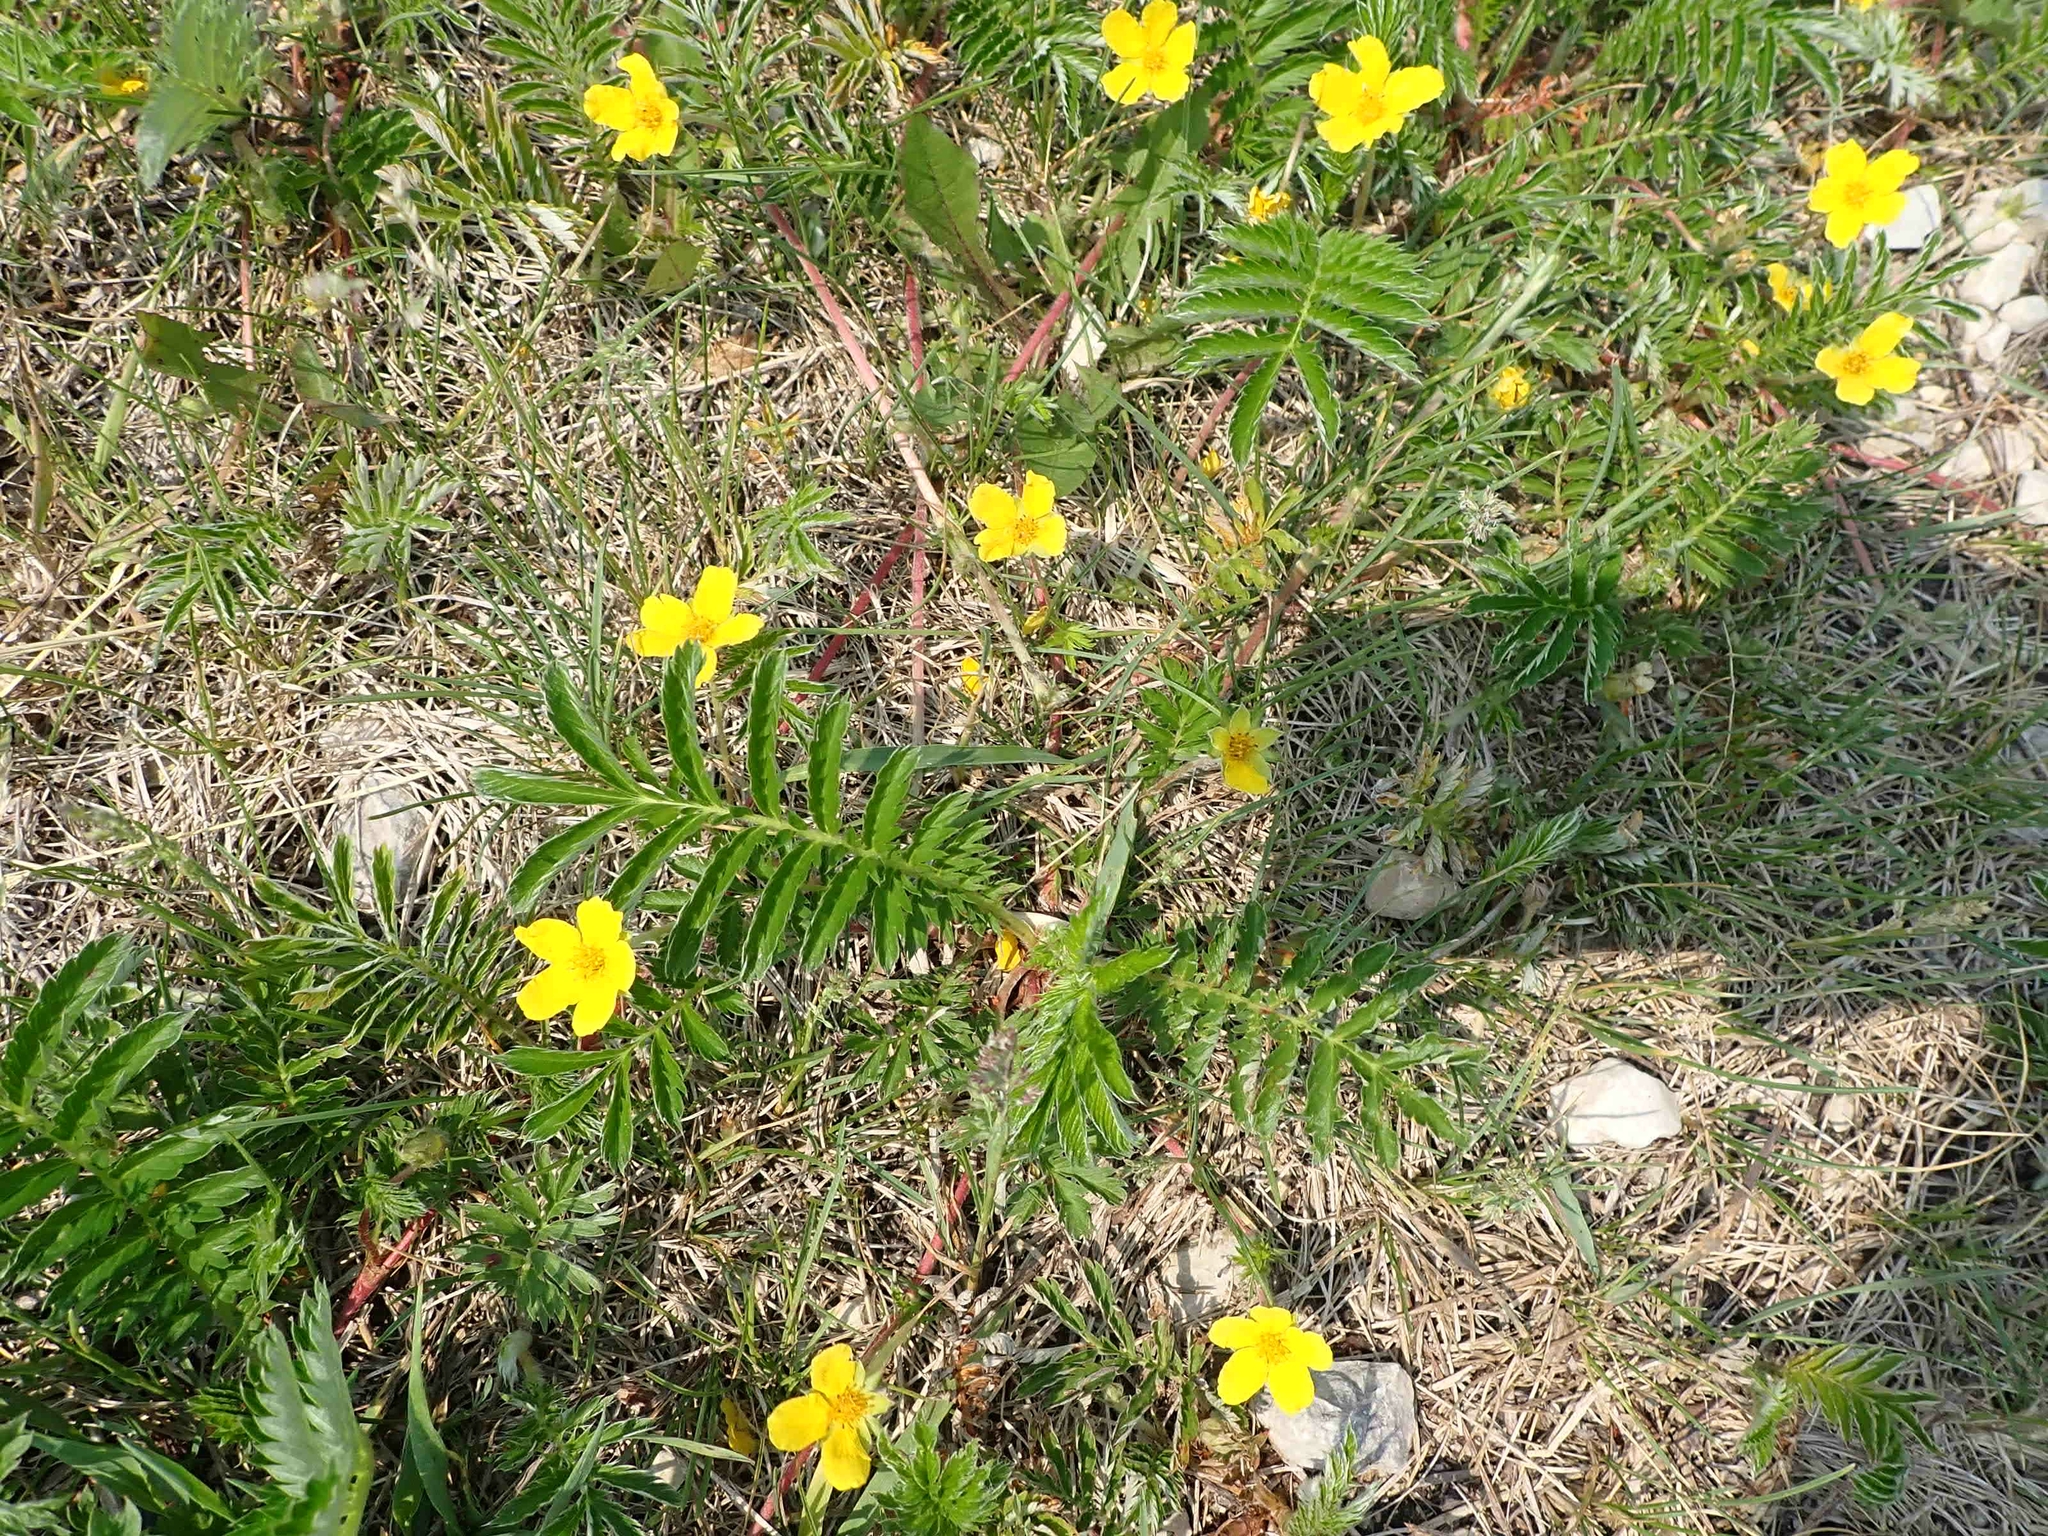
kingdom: Plantae
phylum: Tracheophyta
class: Magnoliopsida
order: Rosales
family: Rosaceae
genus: Argentina
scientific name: Argentina anserina
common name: Common silverweed
